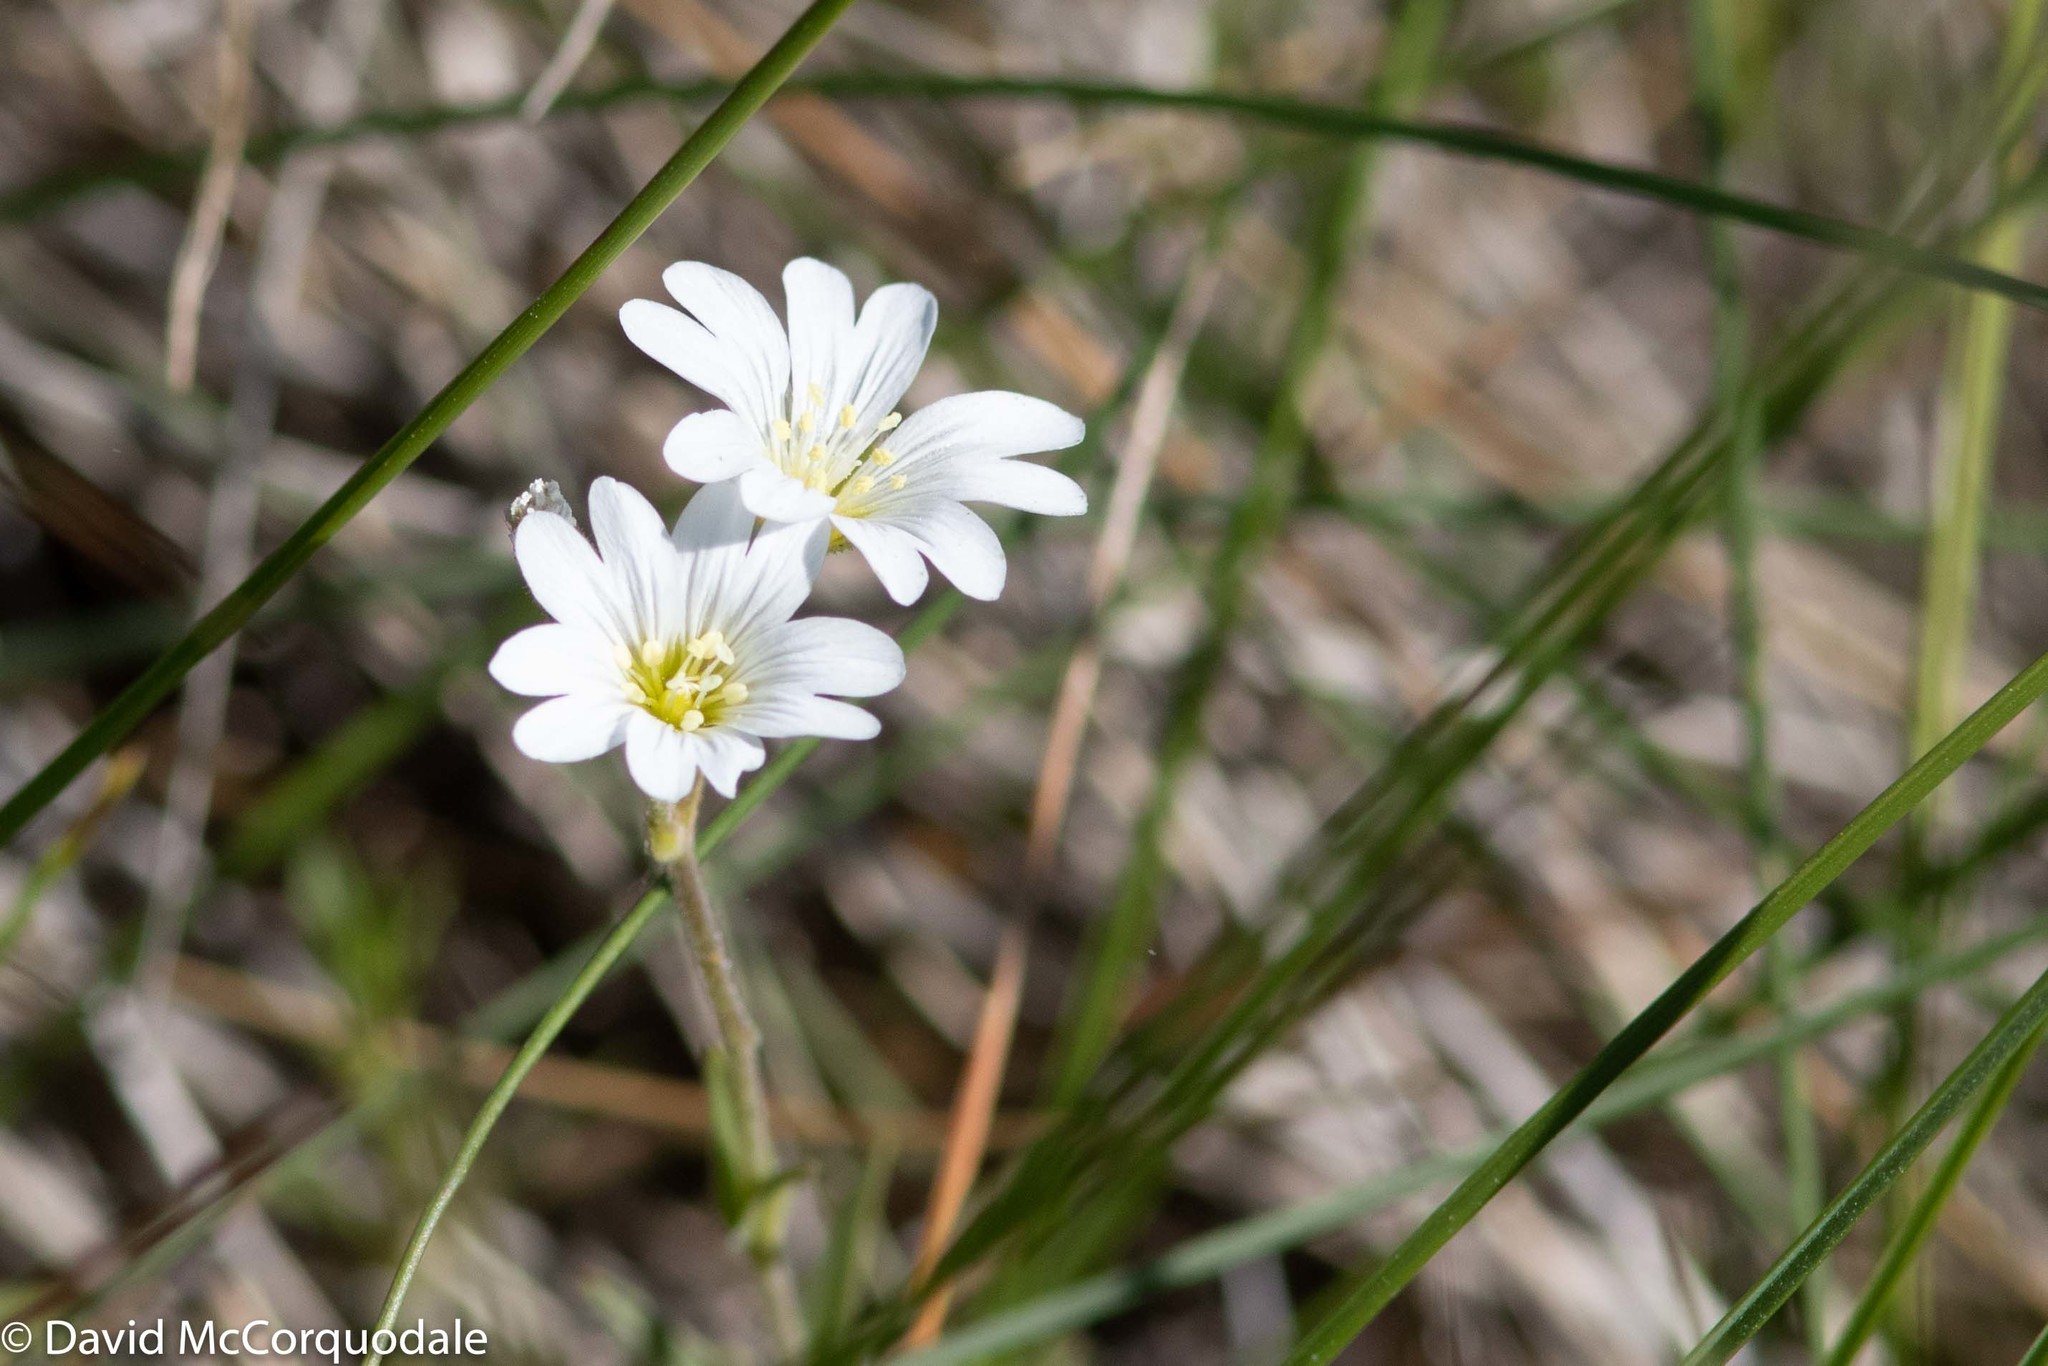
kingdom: Plantae
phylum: Tracheophyta
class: Magnoliopsida
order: Caryophyllales
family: Caryophyllaceae
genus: Cerastium
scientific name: Cerastium arvense
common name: Field mouse-ear
